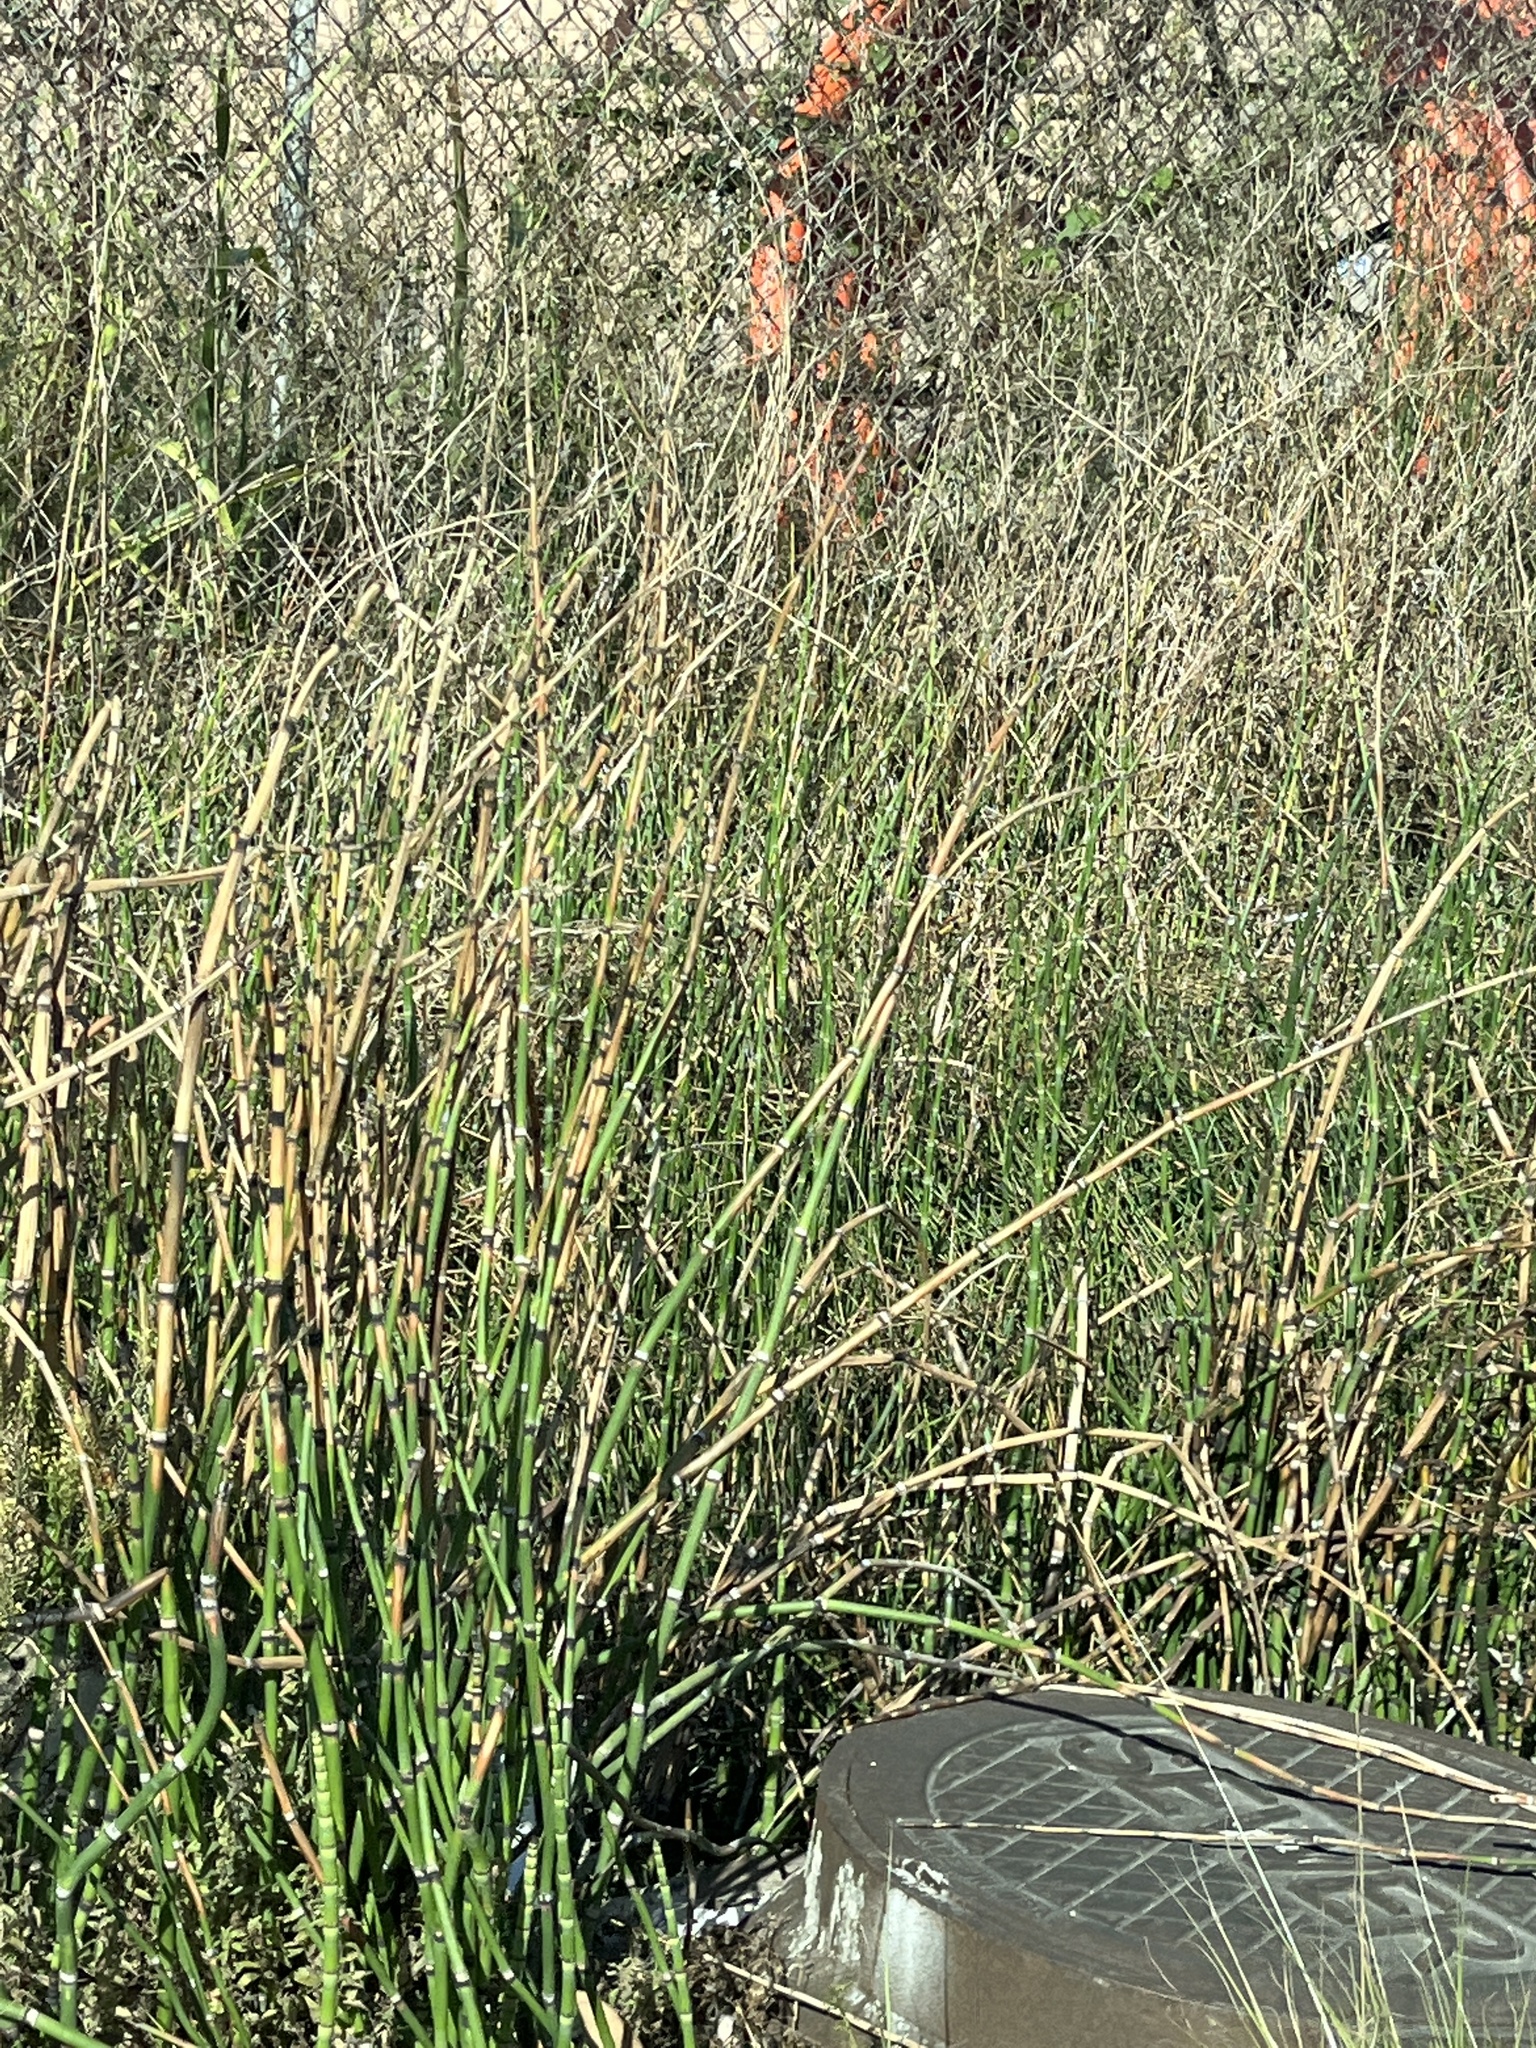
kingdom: Plantae
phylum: Tracheophyta
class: Polypodiopsida
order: Equisetales
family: Equisetaceae
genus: Equisetum
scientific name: Equisetum hyemale
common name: Rough horsetail
